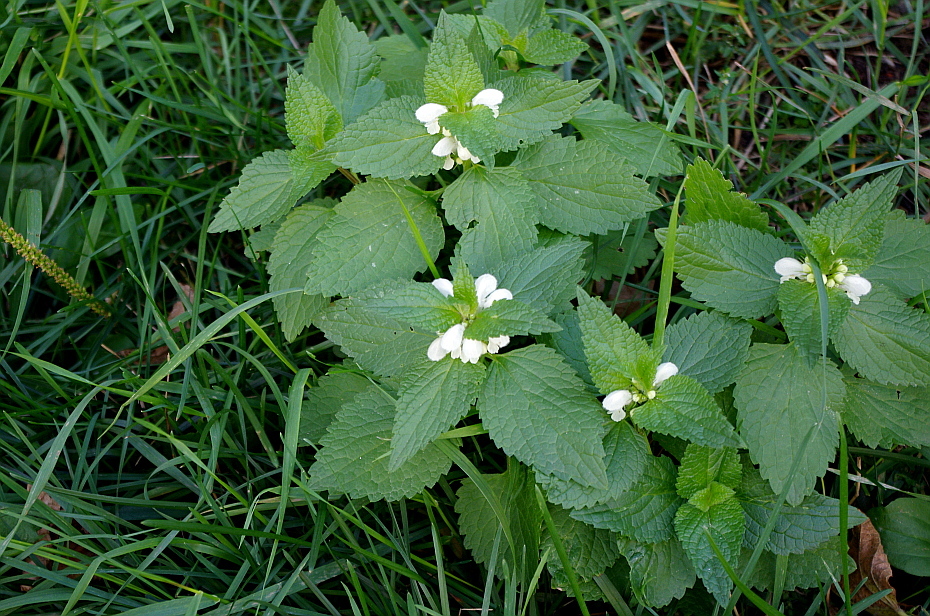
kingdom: Plantae
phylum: Tracheophyta
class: Magnoliopsida
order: Lamiales
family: Lamiaceae
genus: Lamium
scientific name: Lamium album
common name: White dead-nettle
